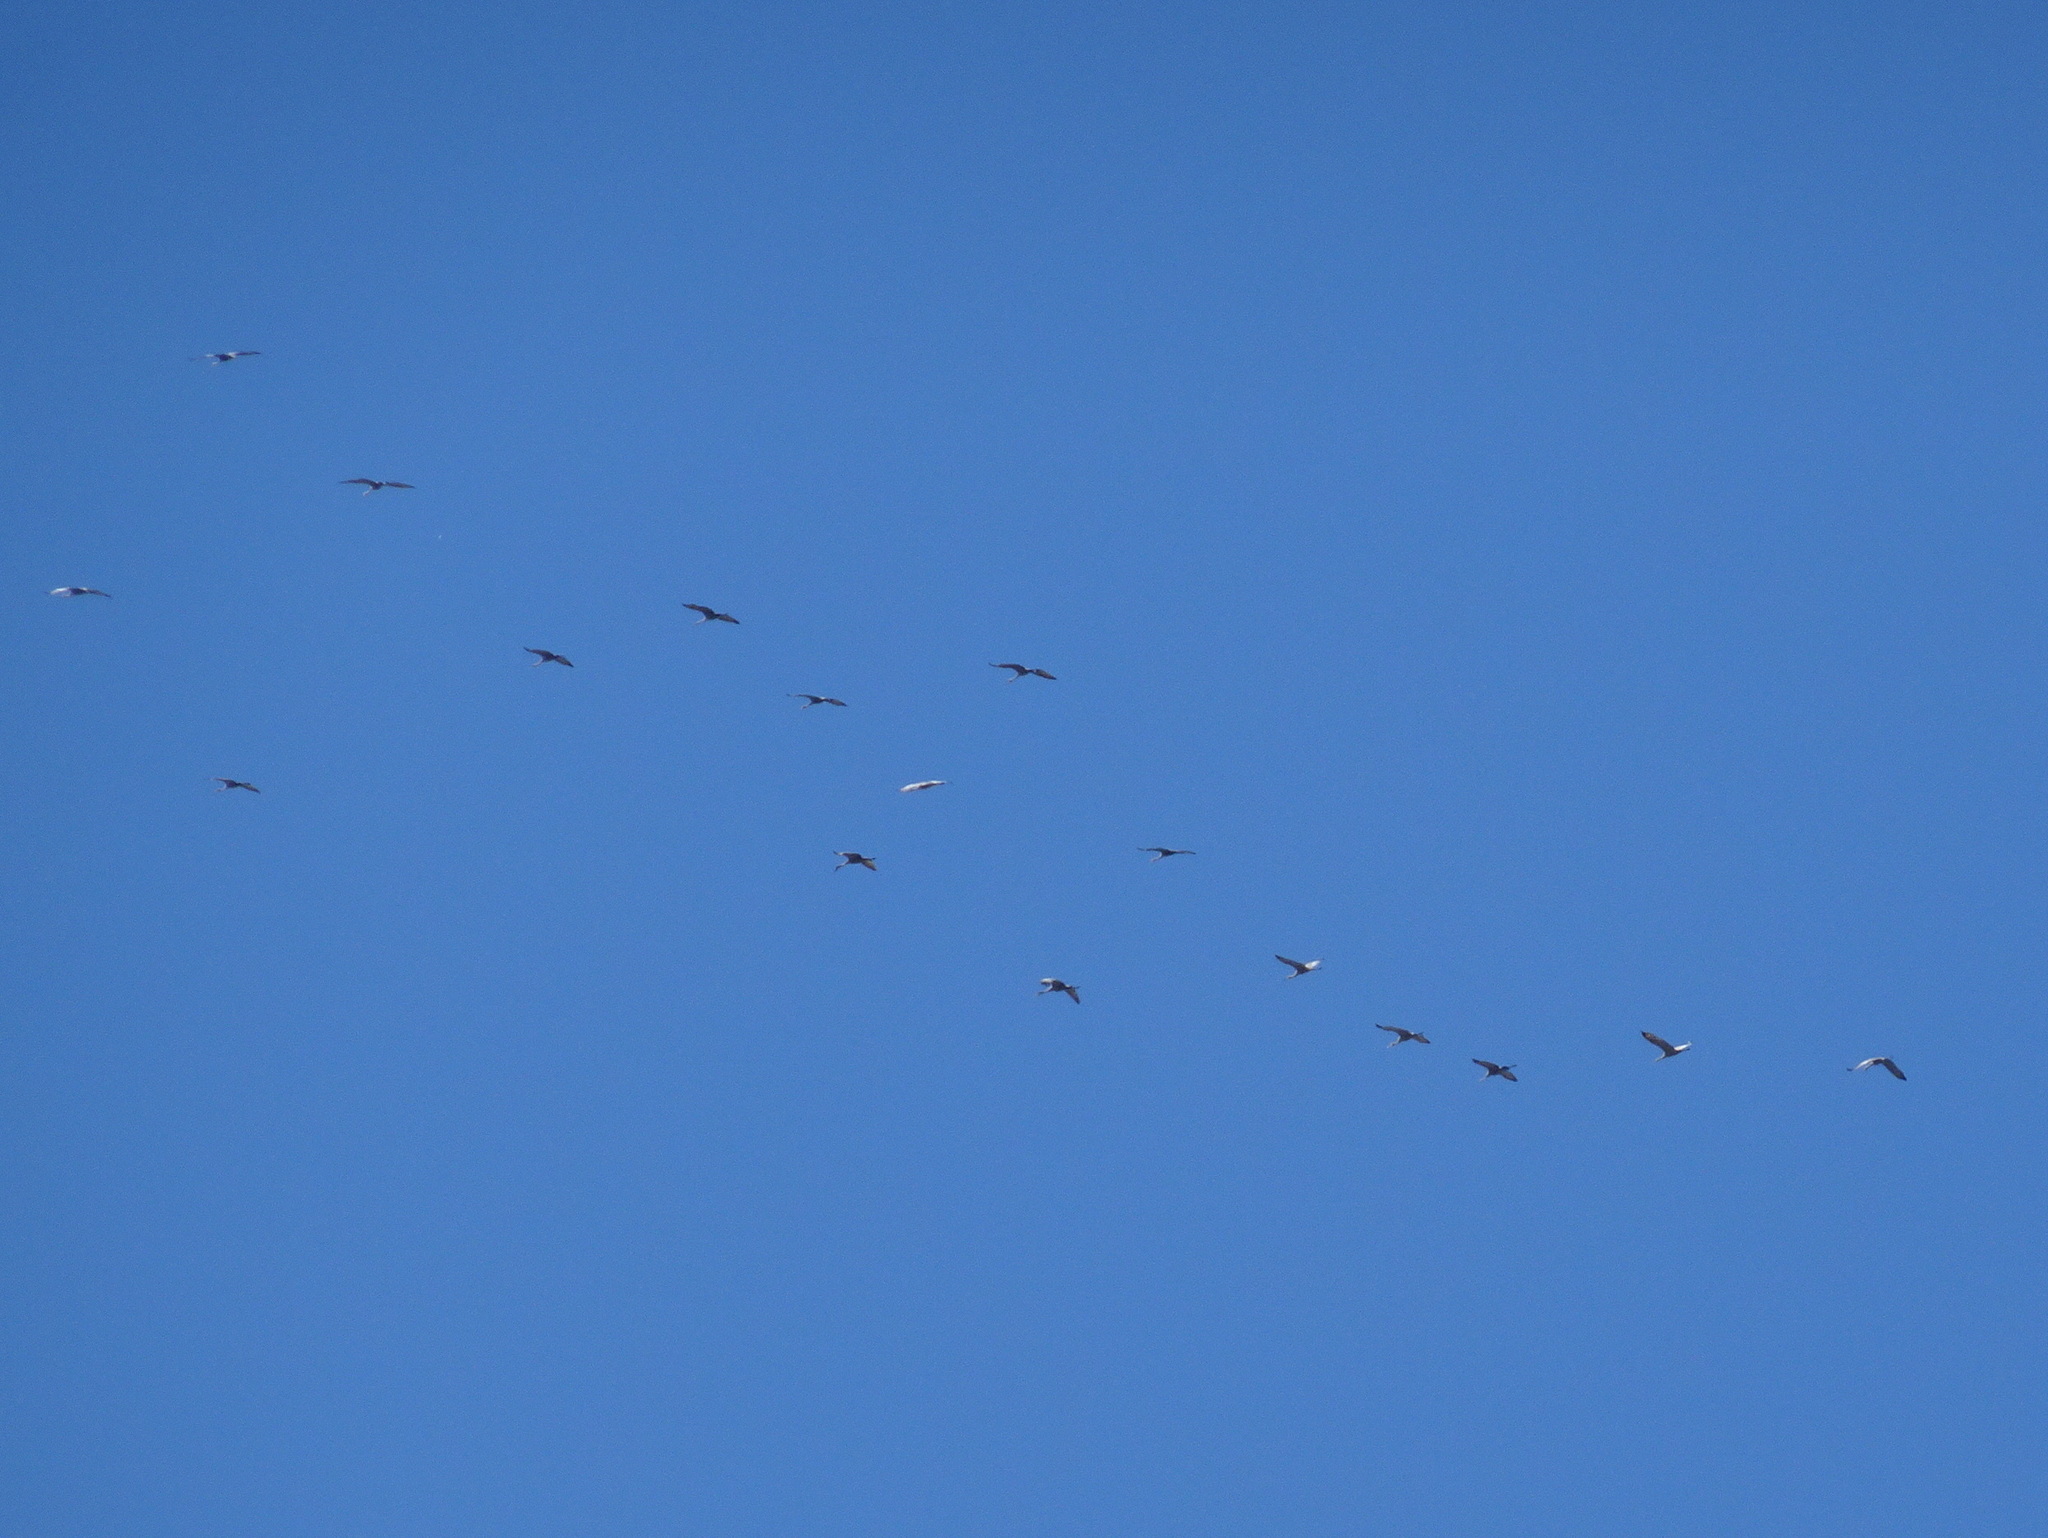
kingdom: Animalia
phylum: Chordata
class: Aves
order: Gruiformes
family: Gruidae
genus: Grus
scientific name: Grus canadensis
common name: Sandhill crane
